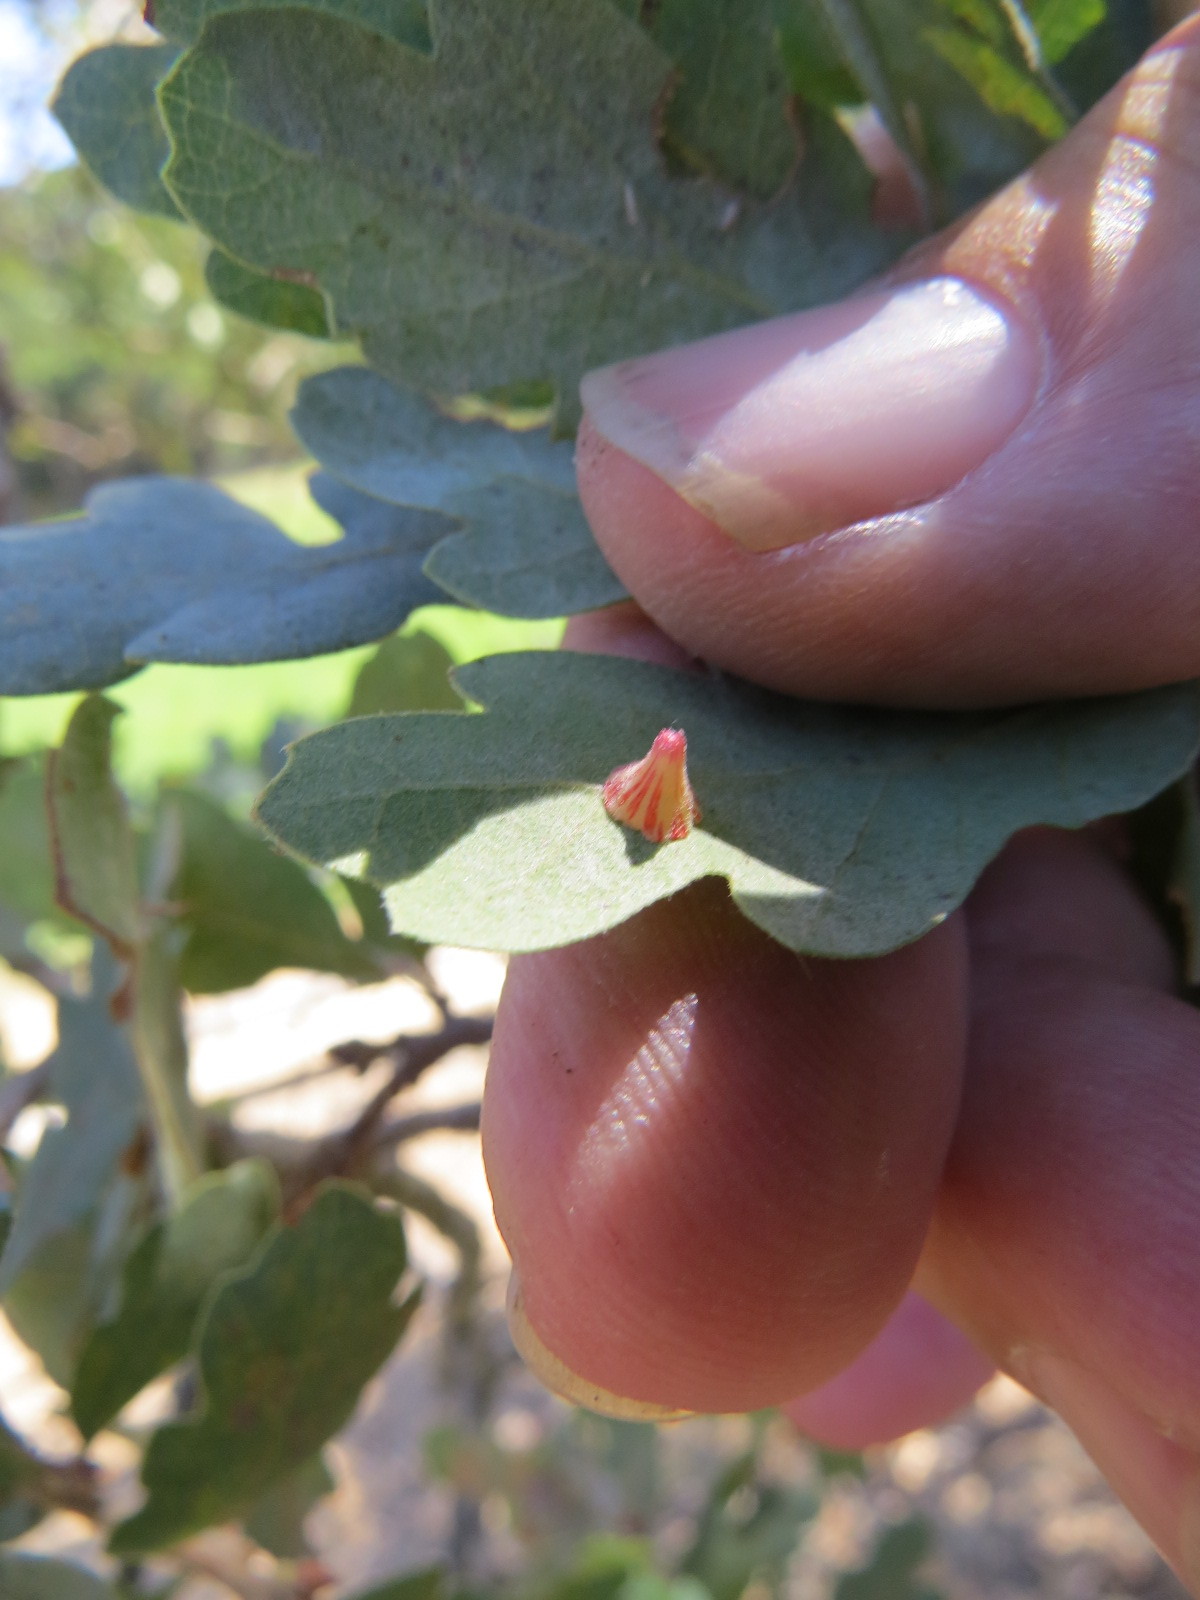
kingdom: Animalia
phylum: Arthropoda
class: Insecta
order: Hymenoptera
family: Cynipidae
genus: Andricus
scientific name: Andricus
